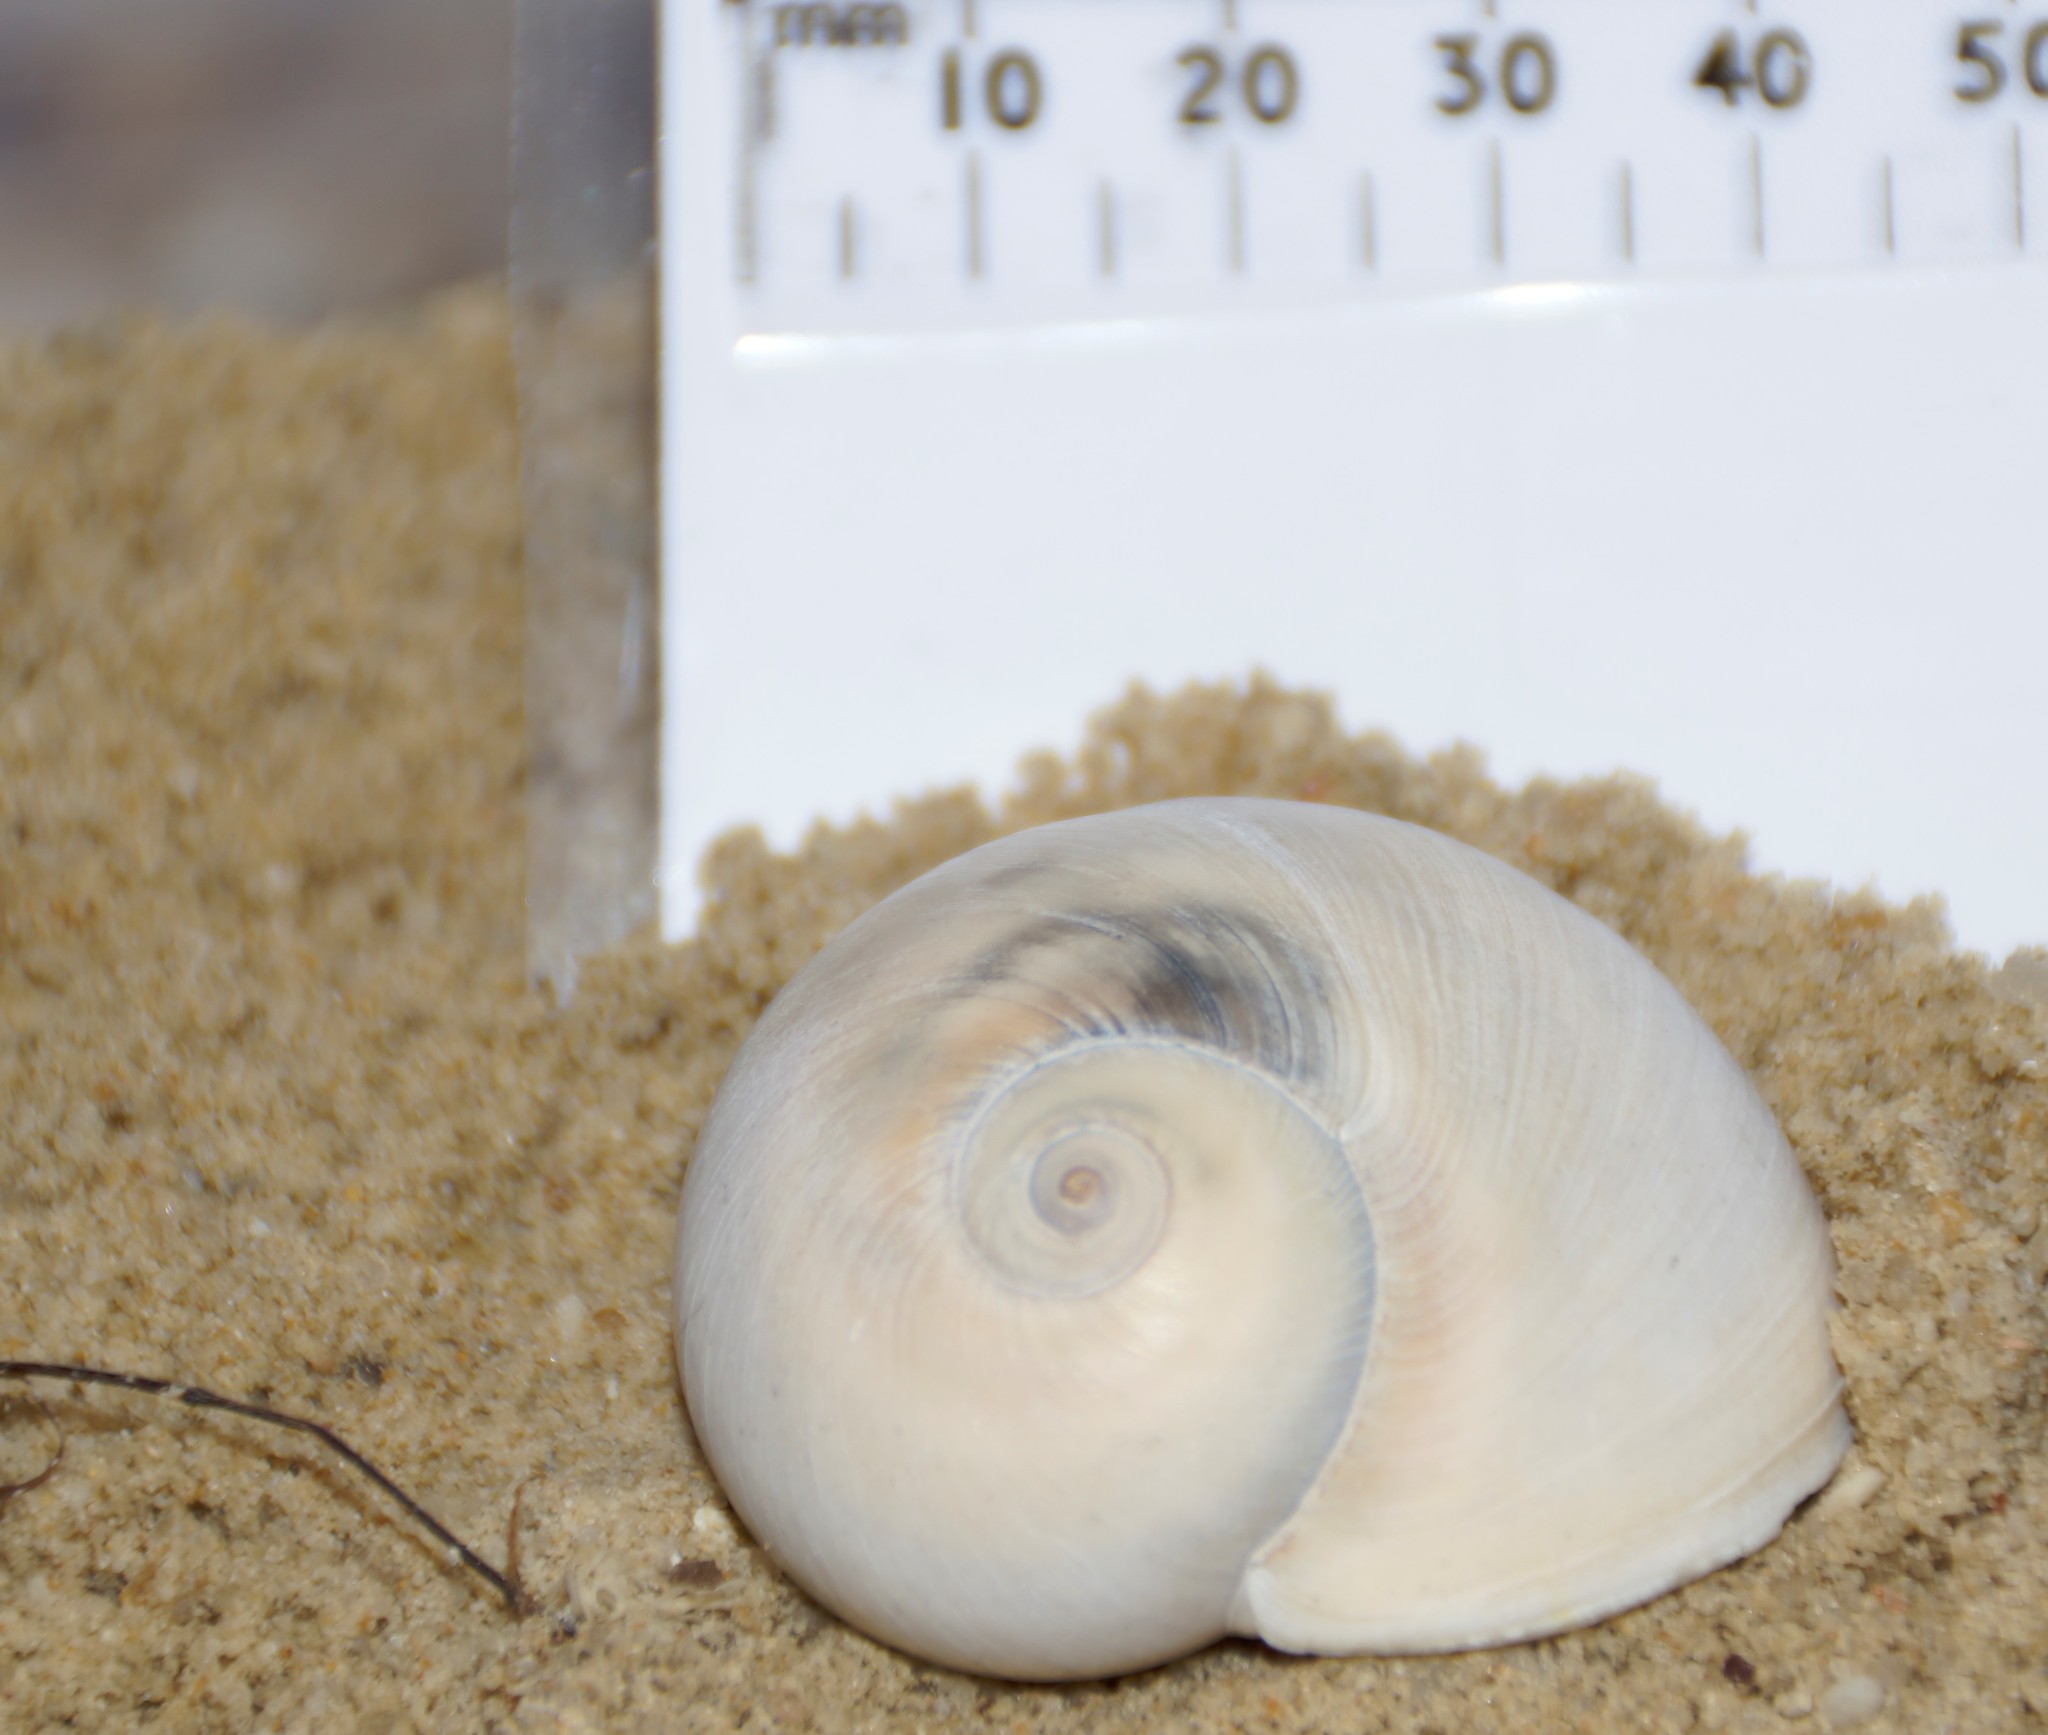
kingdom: Animalia
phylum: Mollusca
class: Gastropoda
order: Littorinimorpha
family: Naticidae
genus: Neverita
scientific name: Neverita didyma
